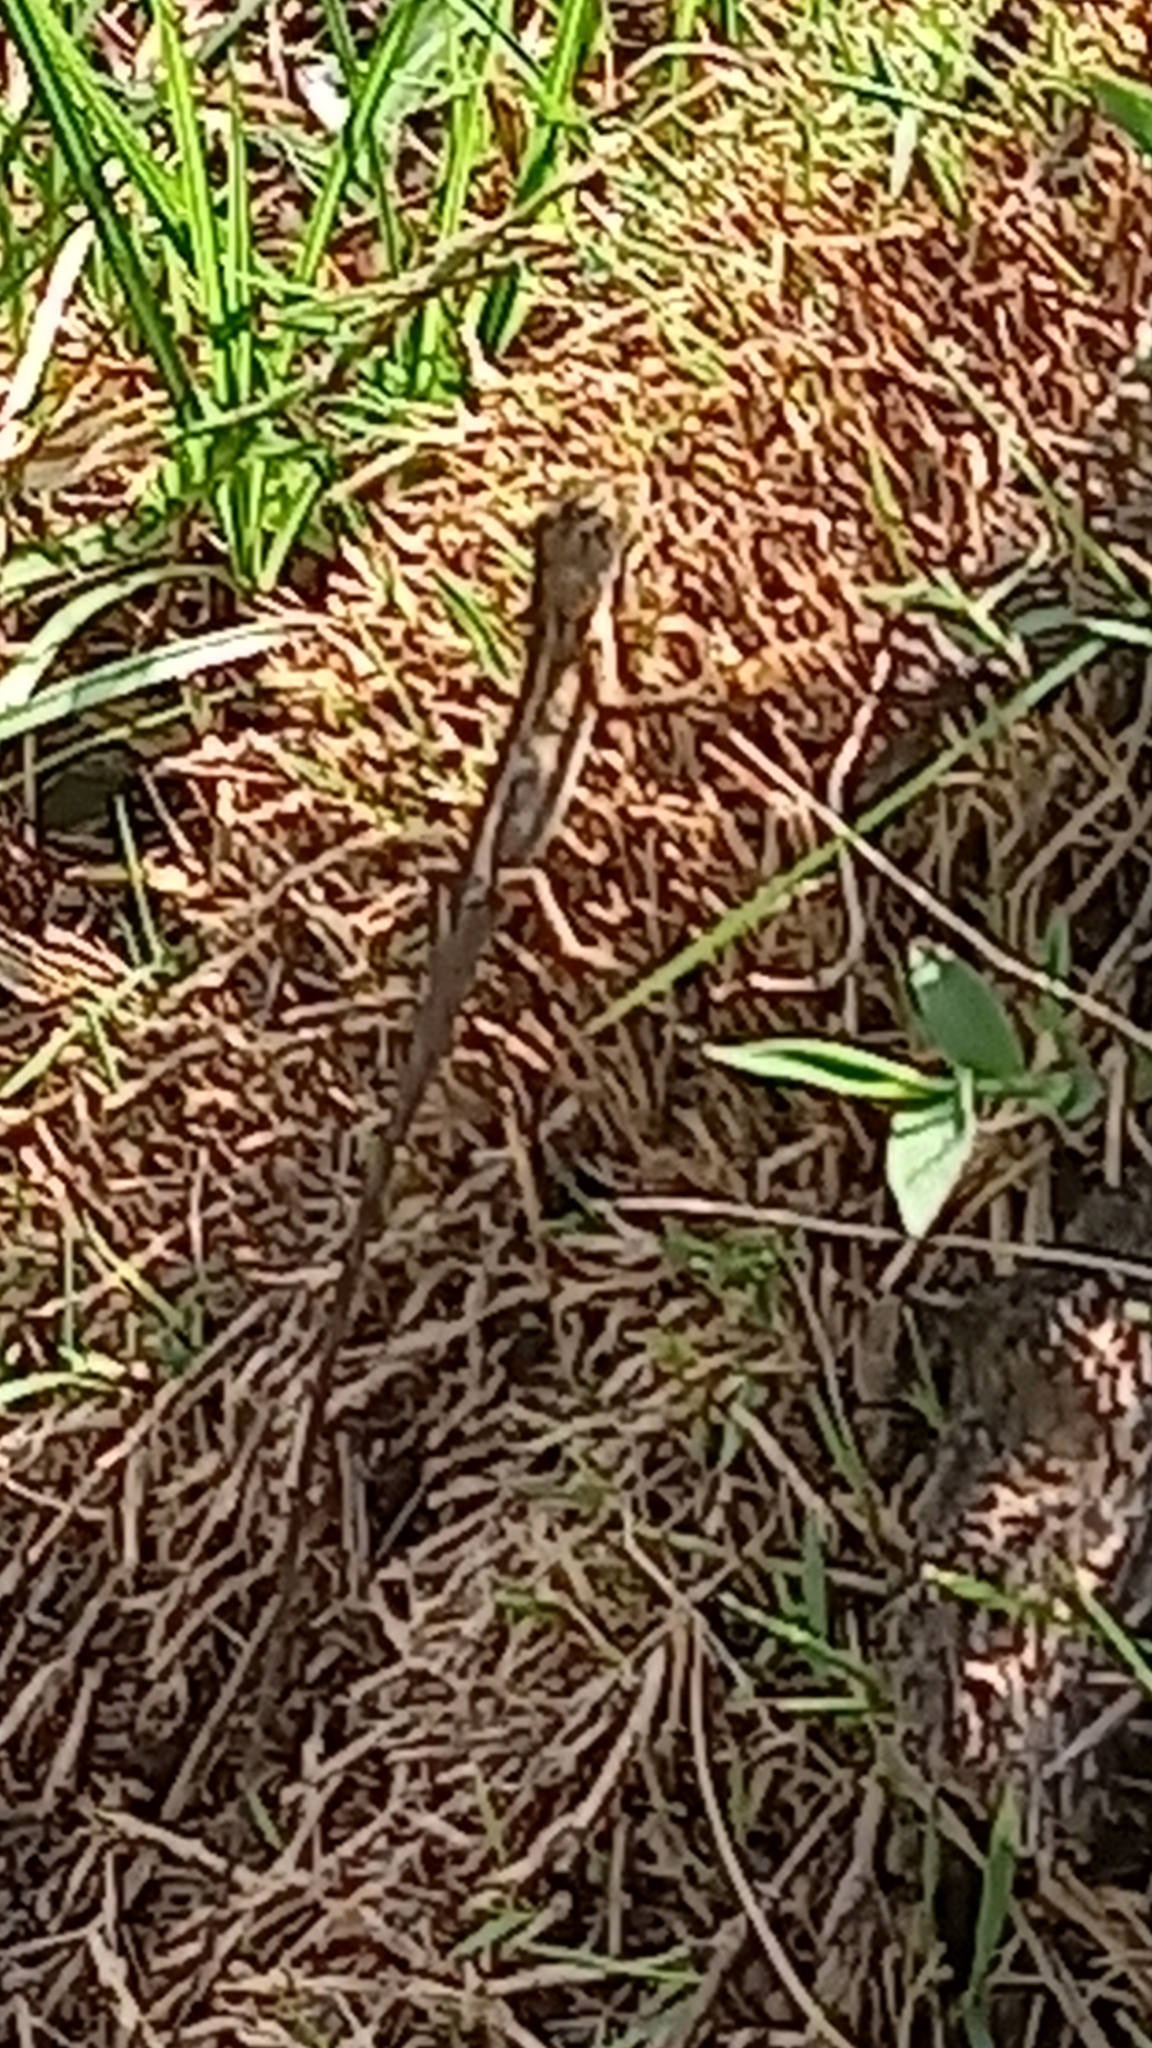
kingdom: Animalia
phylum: Chordata
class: Squamata
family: Agamidae
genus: Calotes
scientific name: Calotes versicolor
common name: Oriental garden lizard
